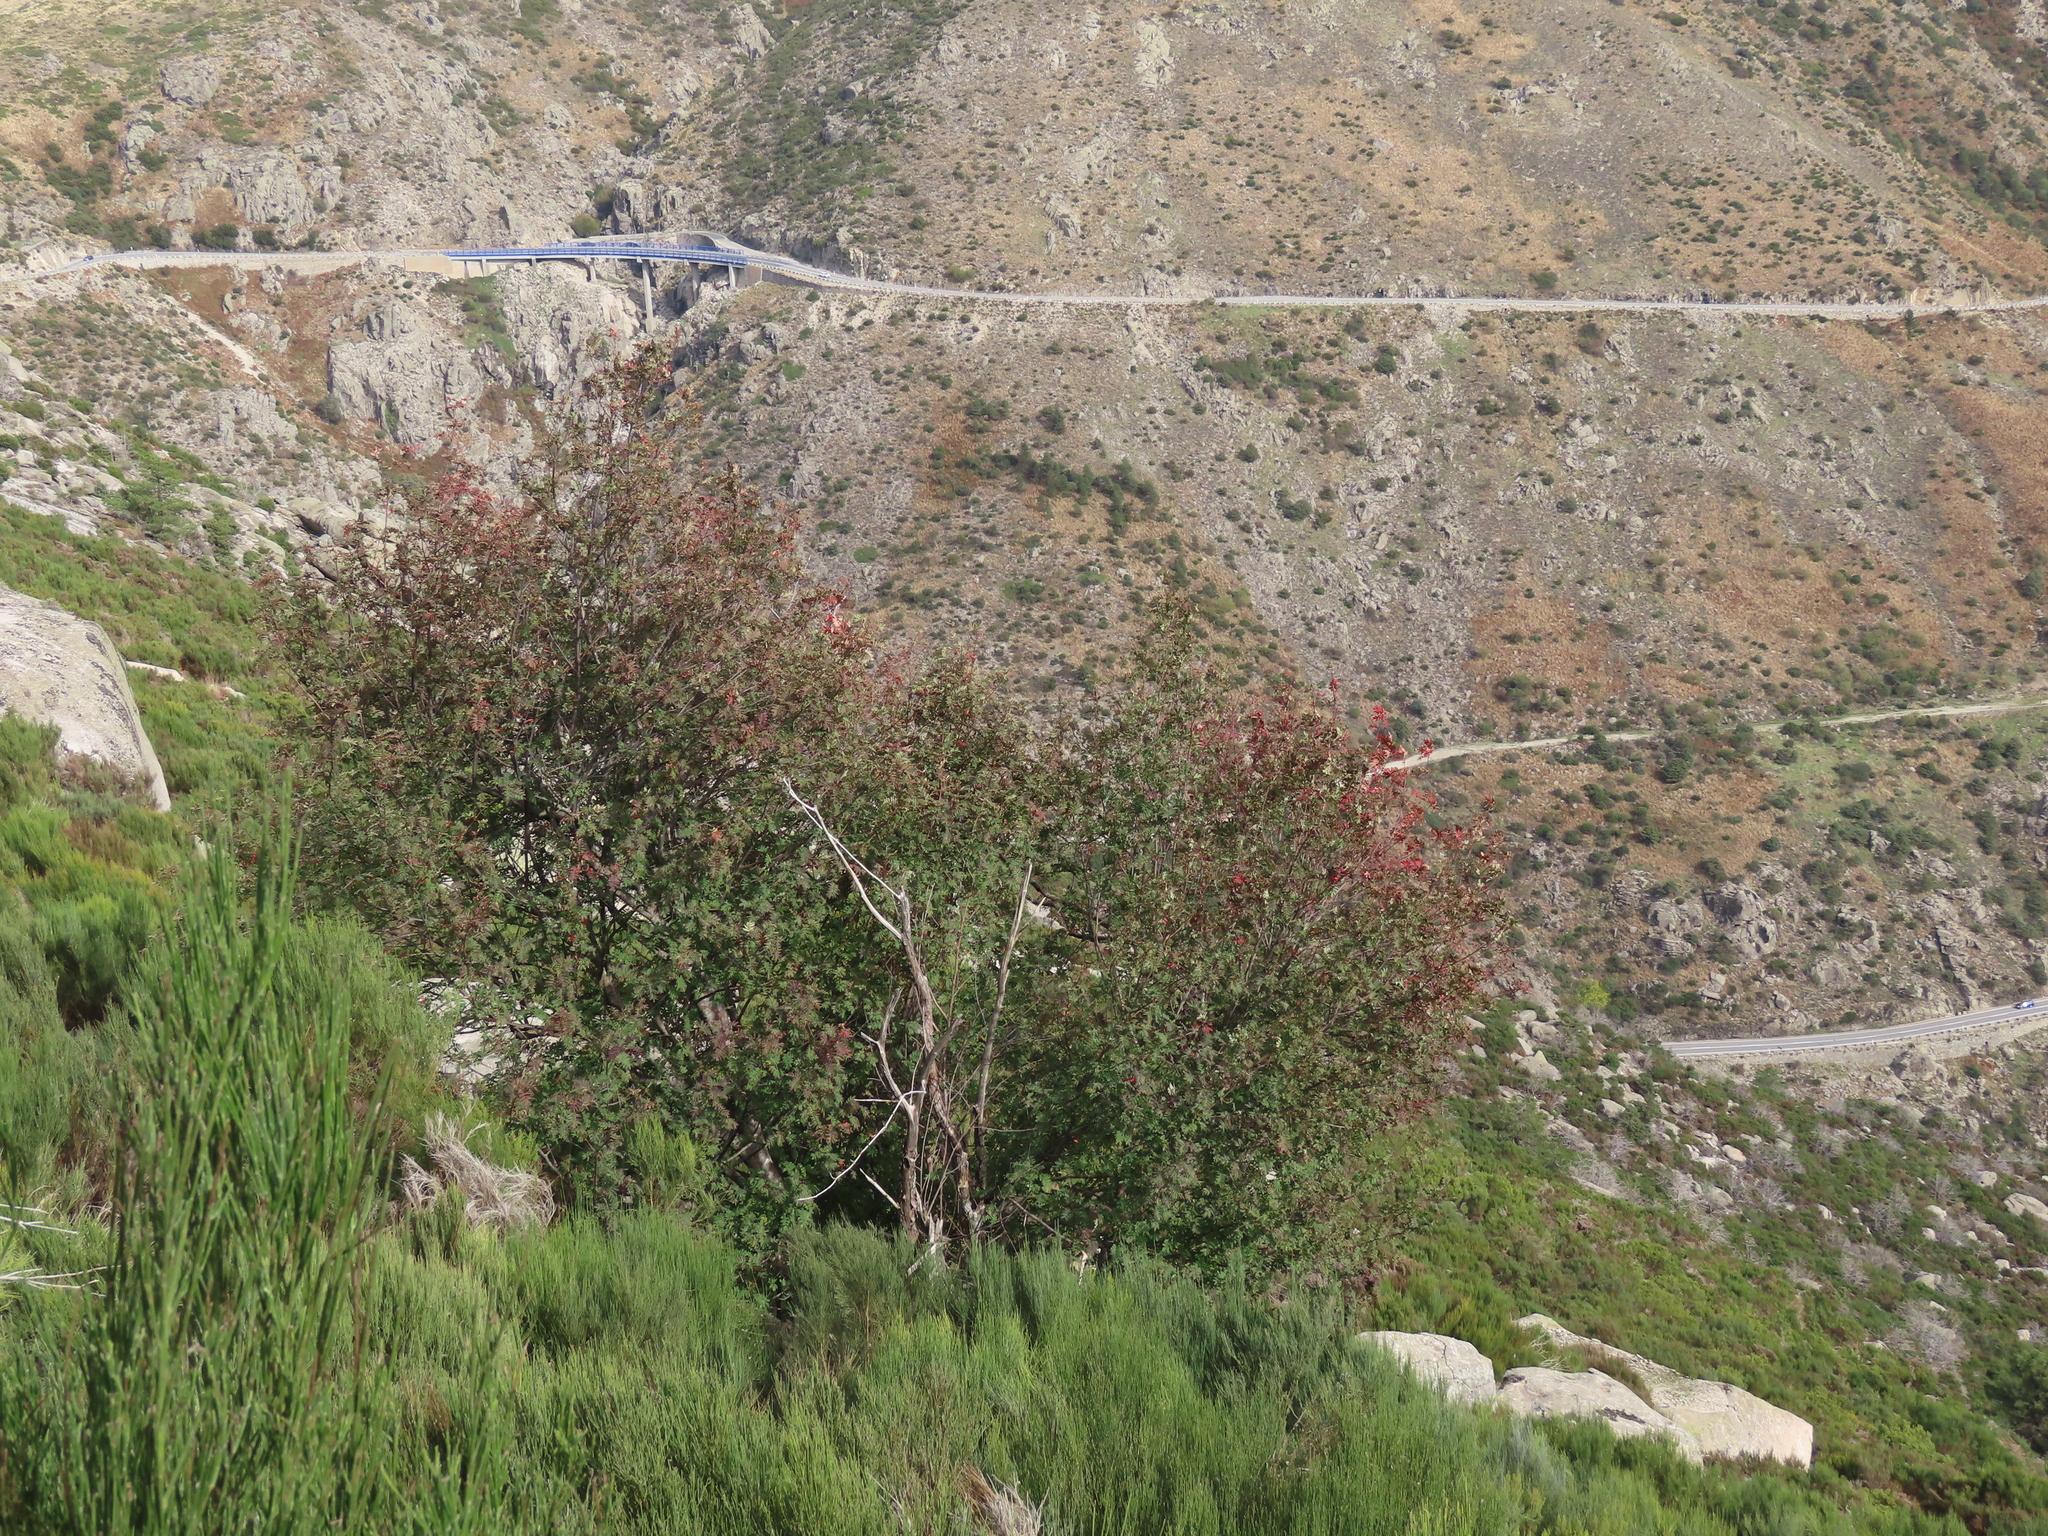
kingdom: Plantae
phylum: Tracheophyta
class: Magnoliopsida
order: Rosales
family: Rosaceae
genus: Sorbus
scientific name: Sorbus aucuparia
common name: Rowan
